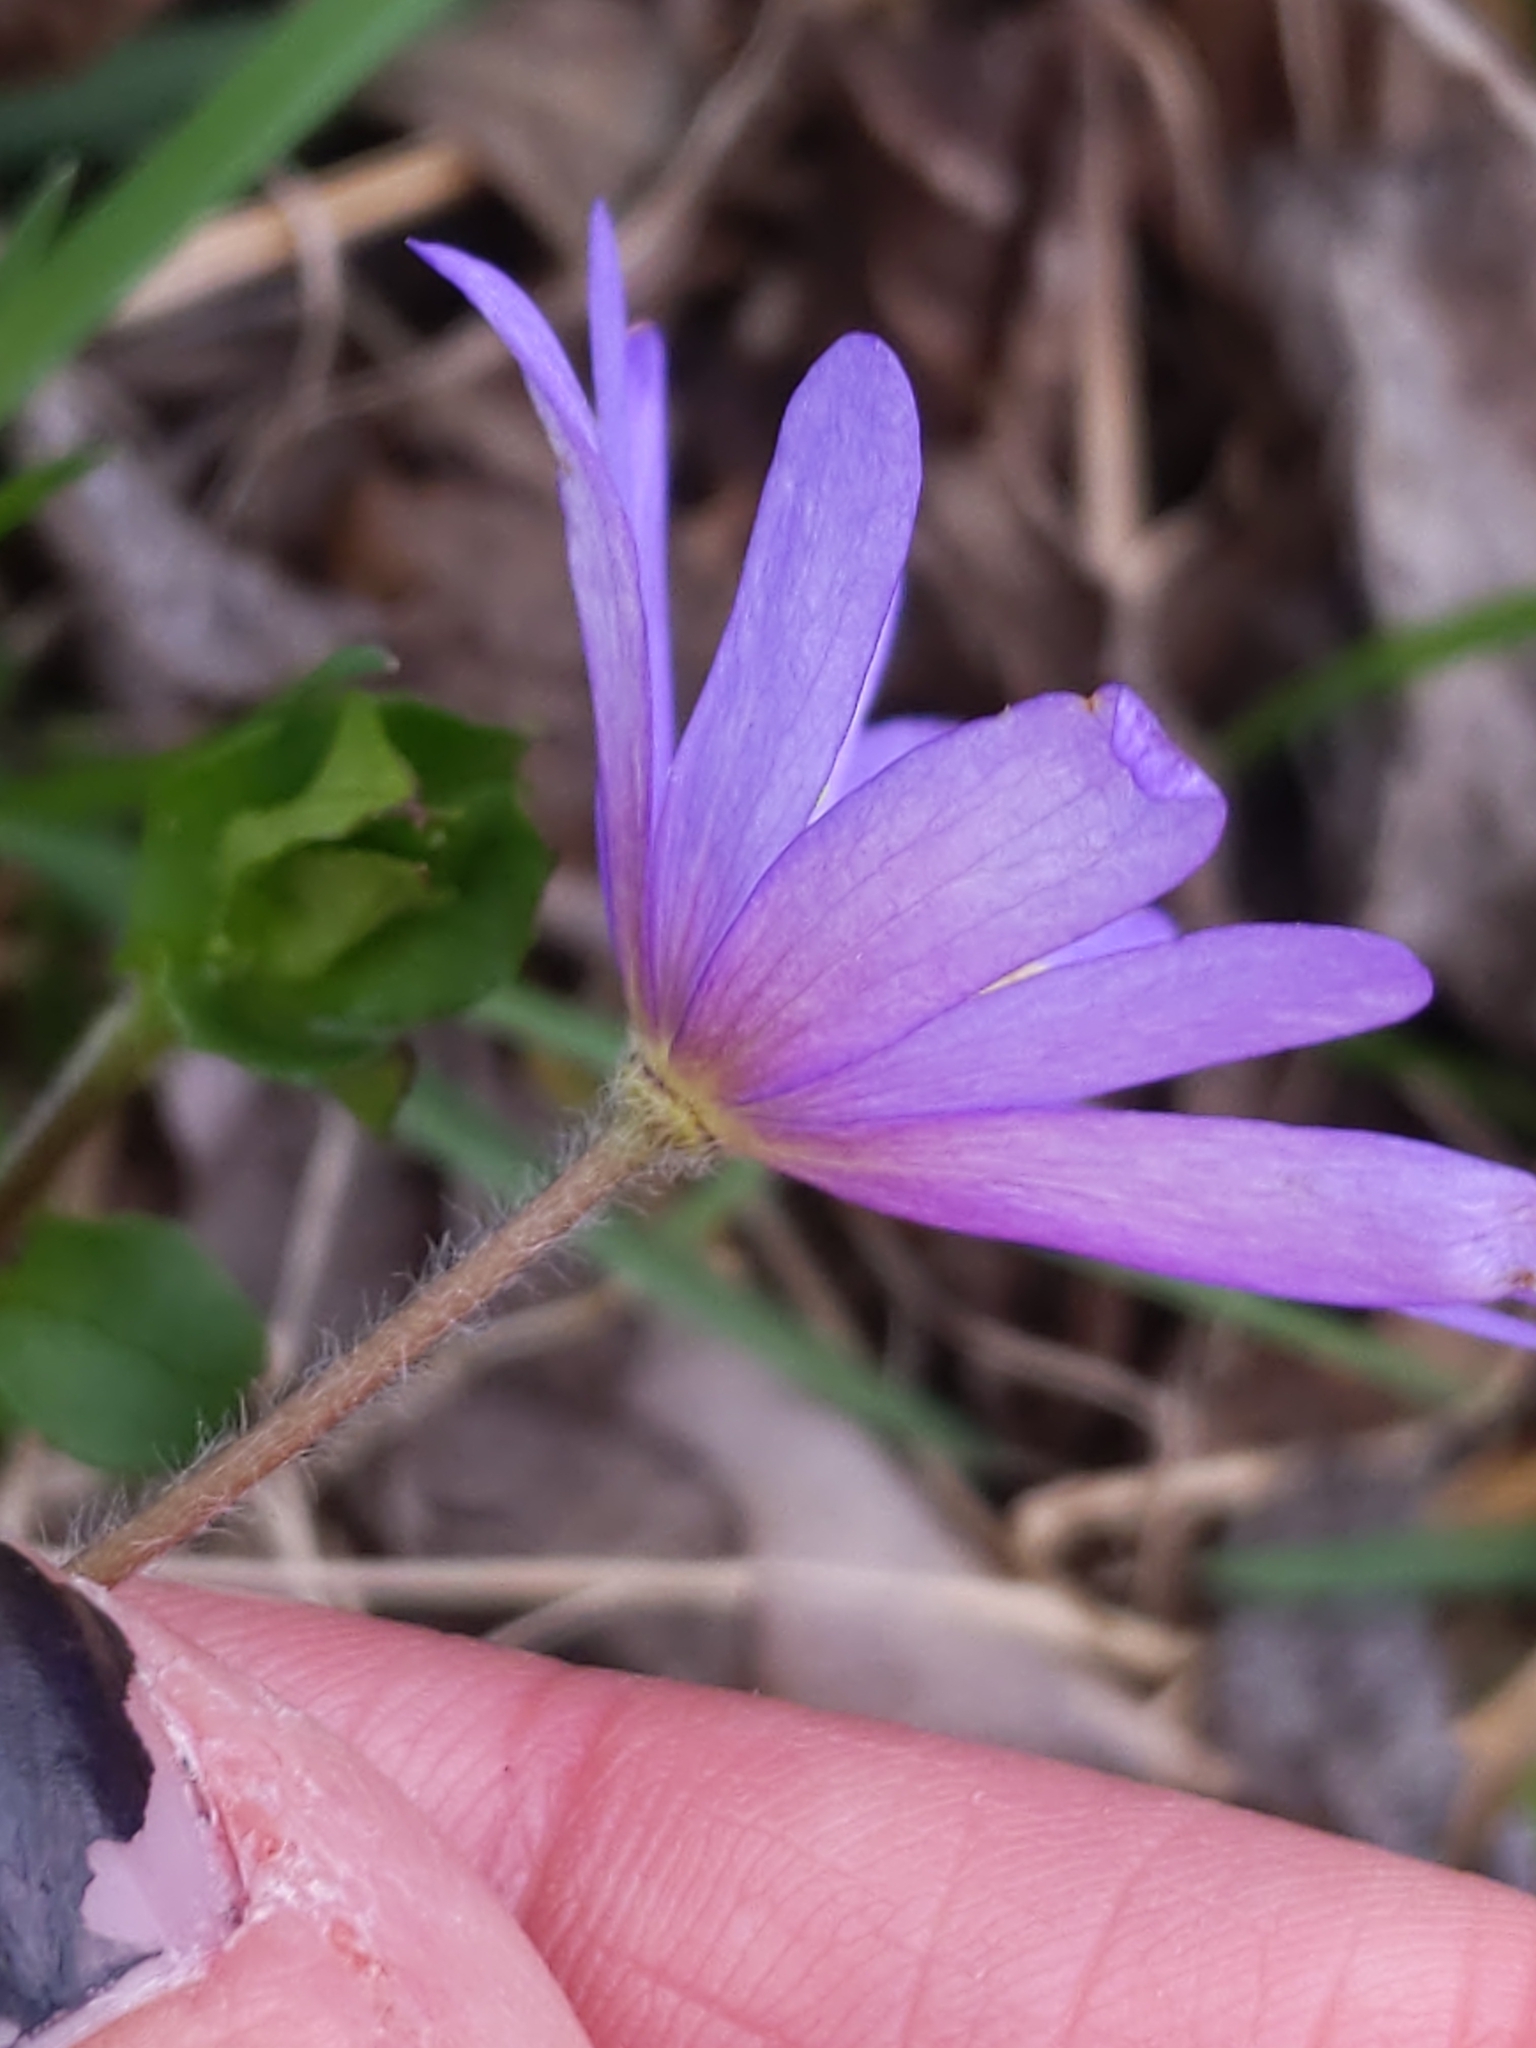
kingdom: Plantae
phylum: Tracheophyta
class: Magnoliopsida
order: Ranunculales
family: Ranunculaceae
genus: Anemone
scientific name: Anemone blanda
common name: Balkan anemone
